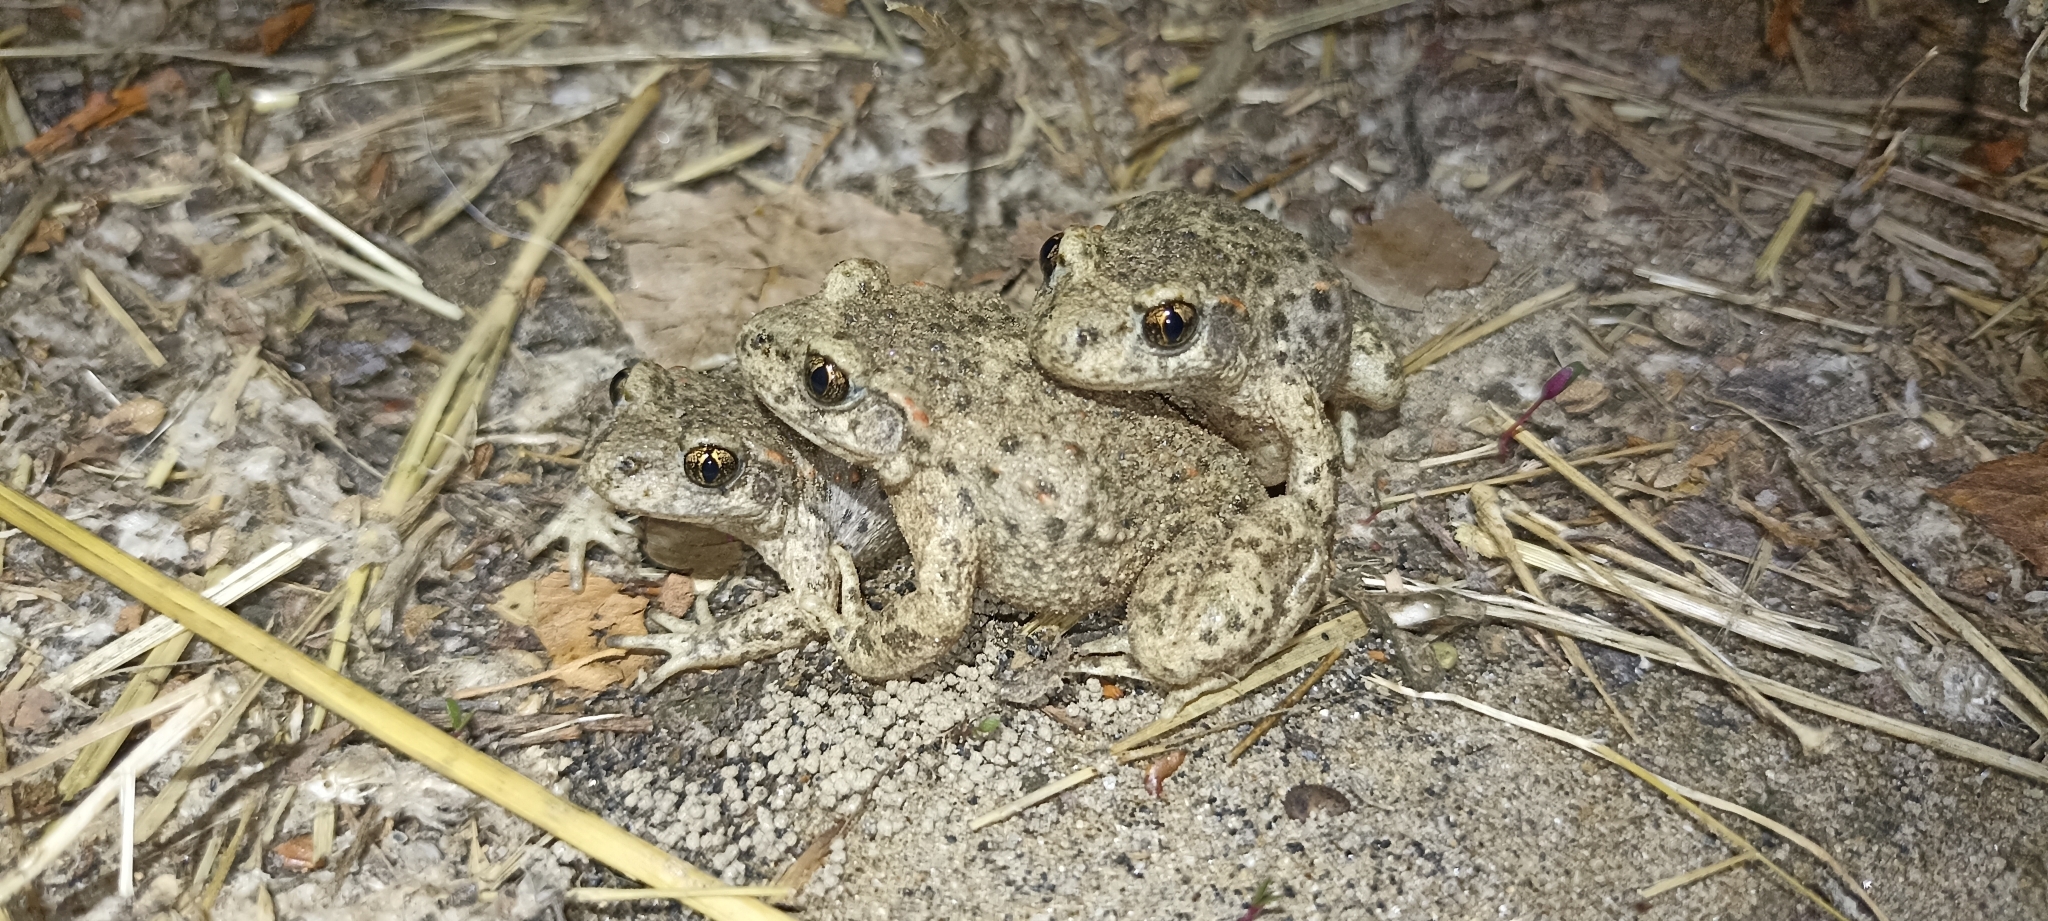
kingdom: Animalia
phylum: Chordata
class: Amphibia
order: Anura
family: Alytidae
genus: Alytes
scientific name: Alytes obstetricans
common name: Midwife toad
